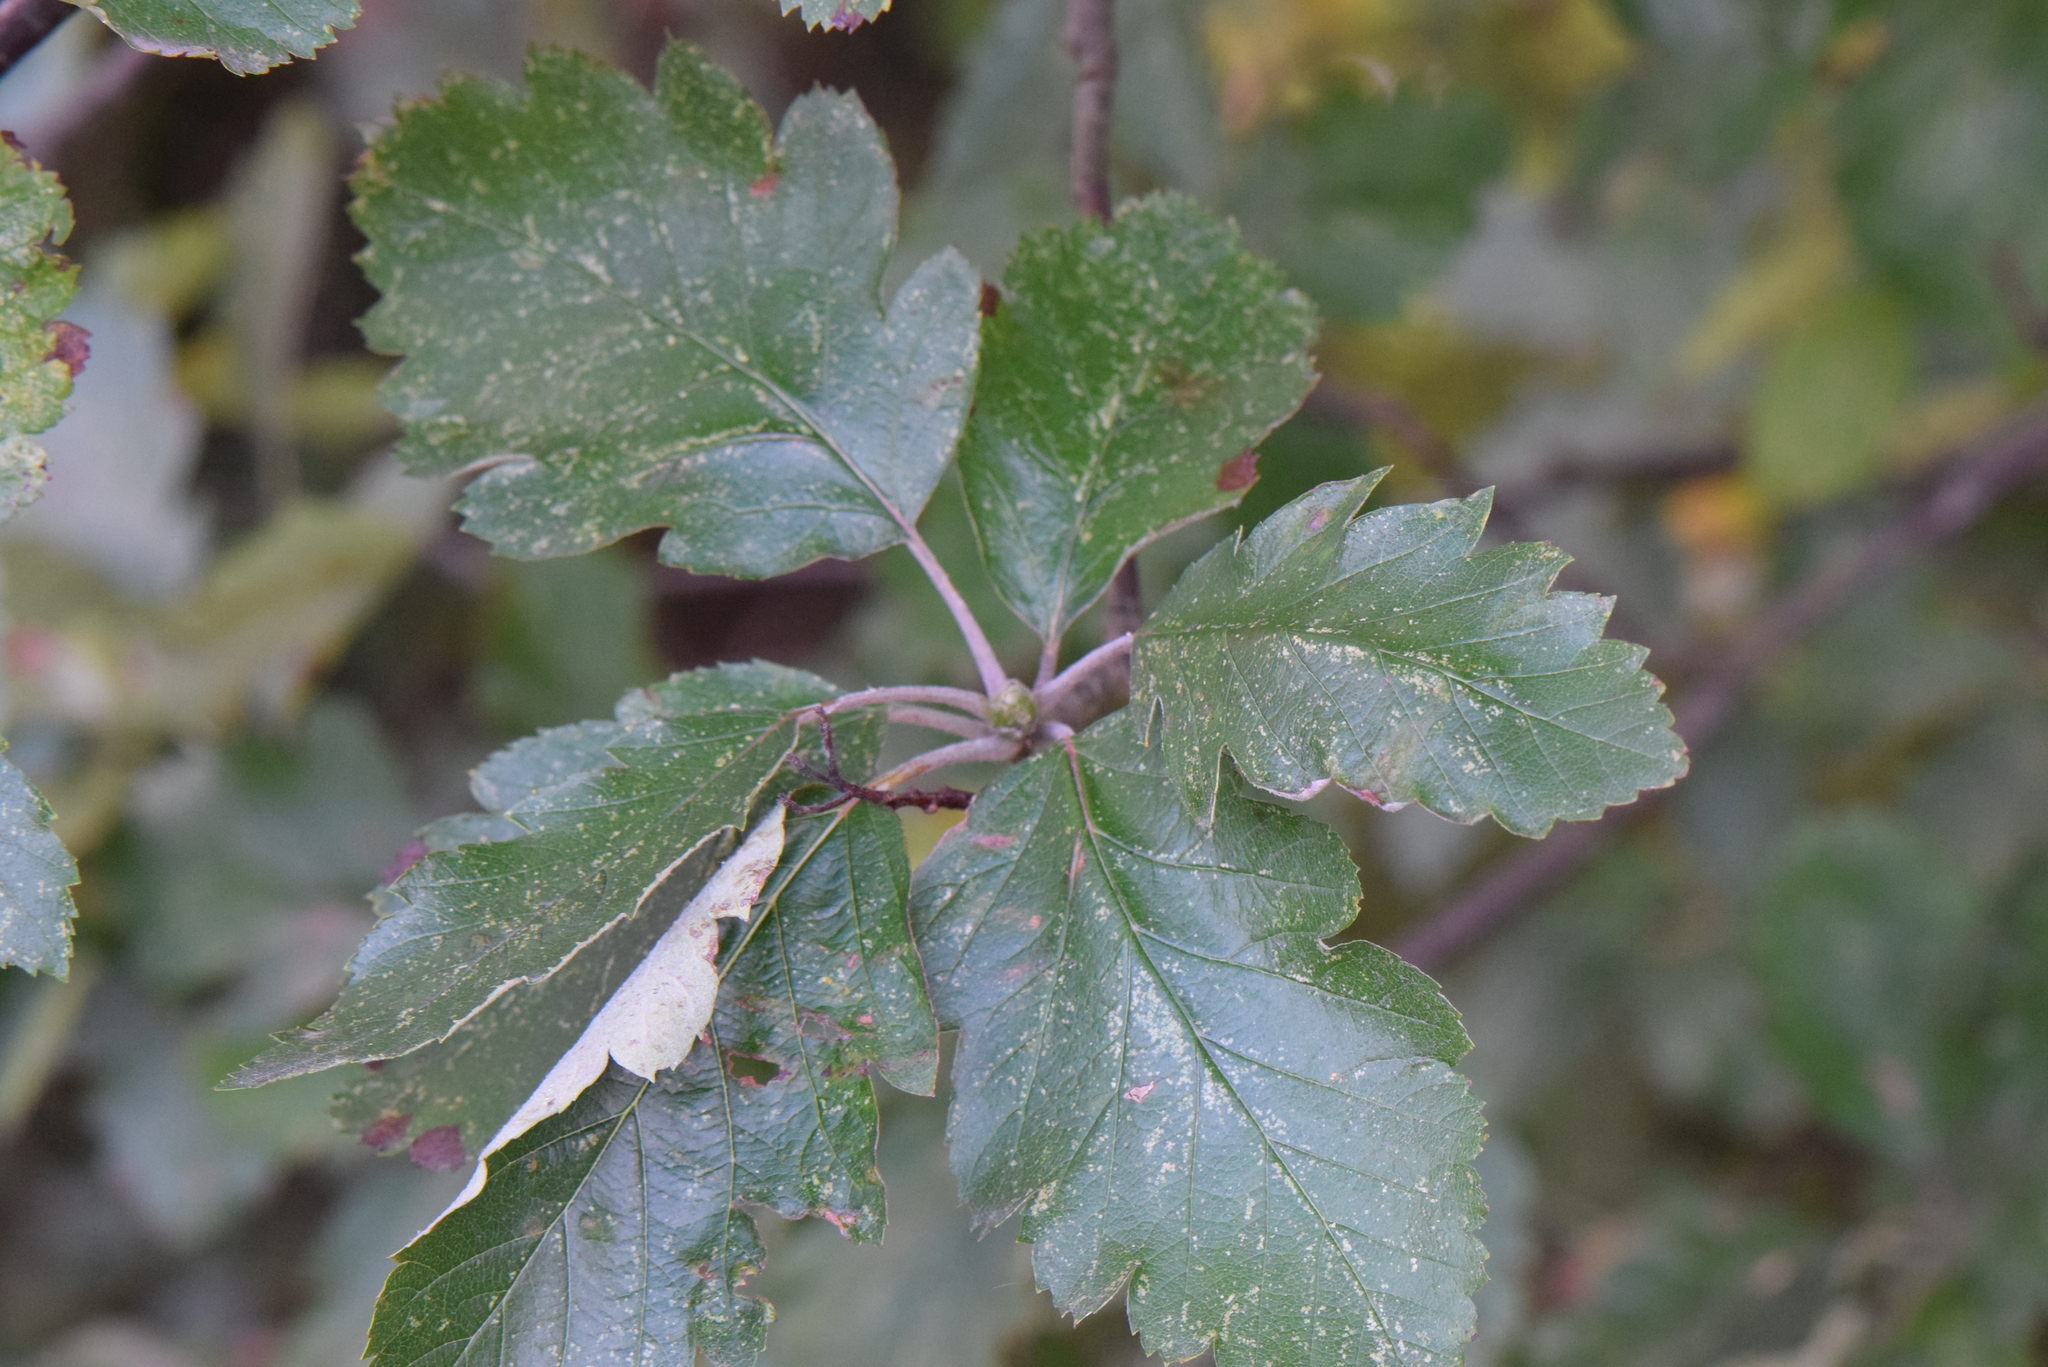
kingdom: Plantae
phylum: Tracheophyta
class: Magnoliopsida
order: Rosales
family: Rosaceae
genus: Scandosorbus
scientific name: Scandosorbus intermedia
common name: Swedish whitebeam
